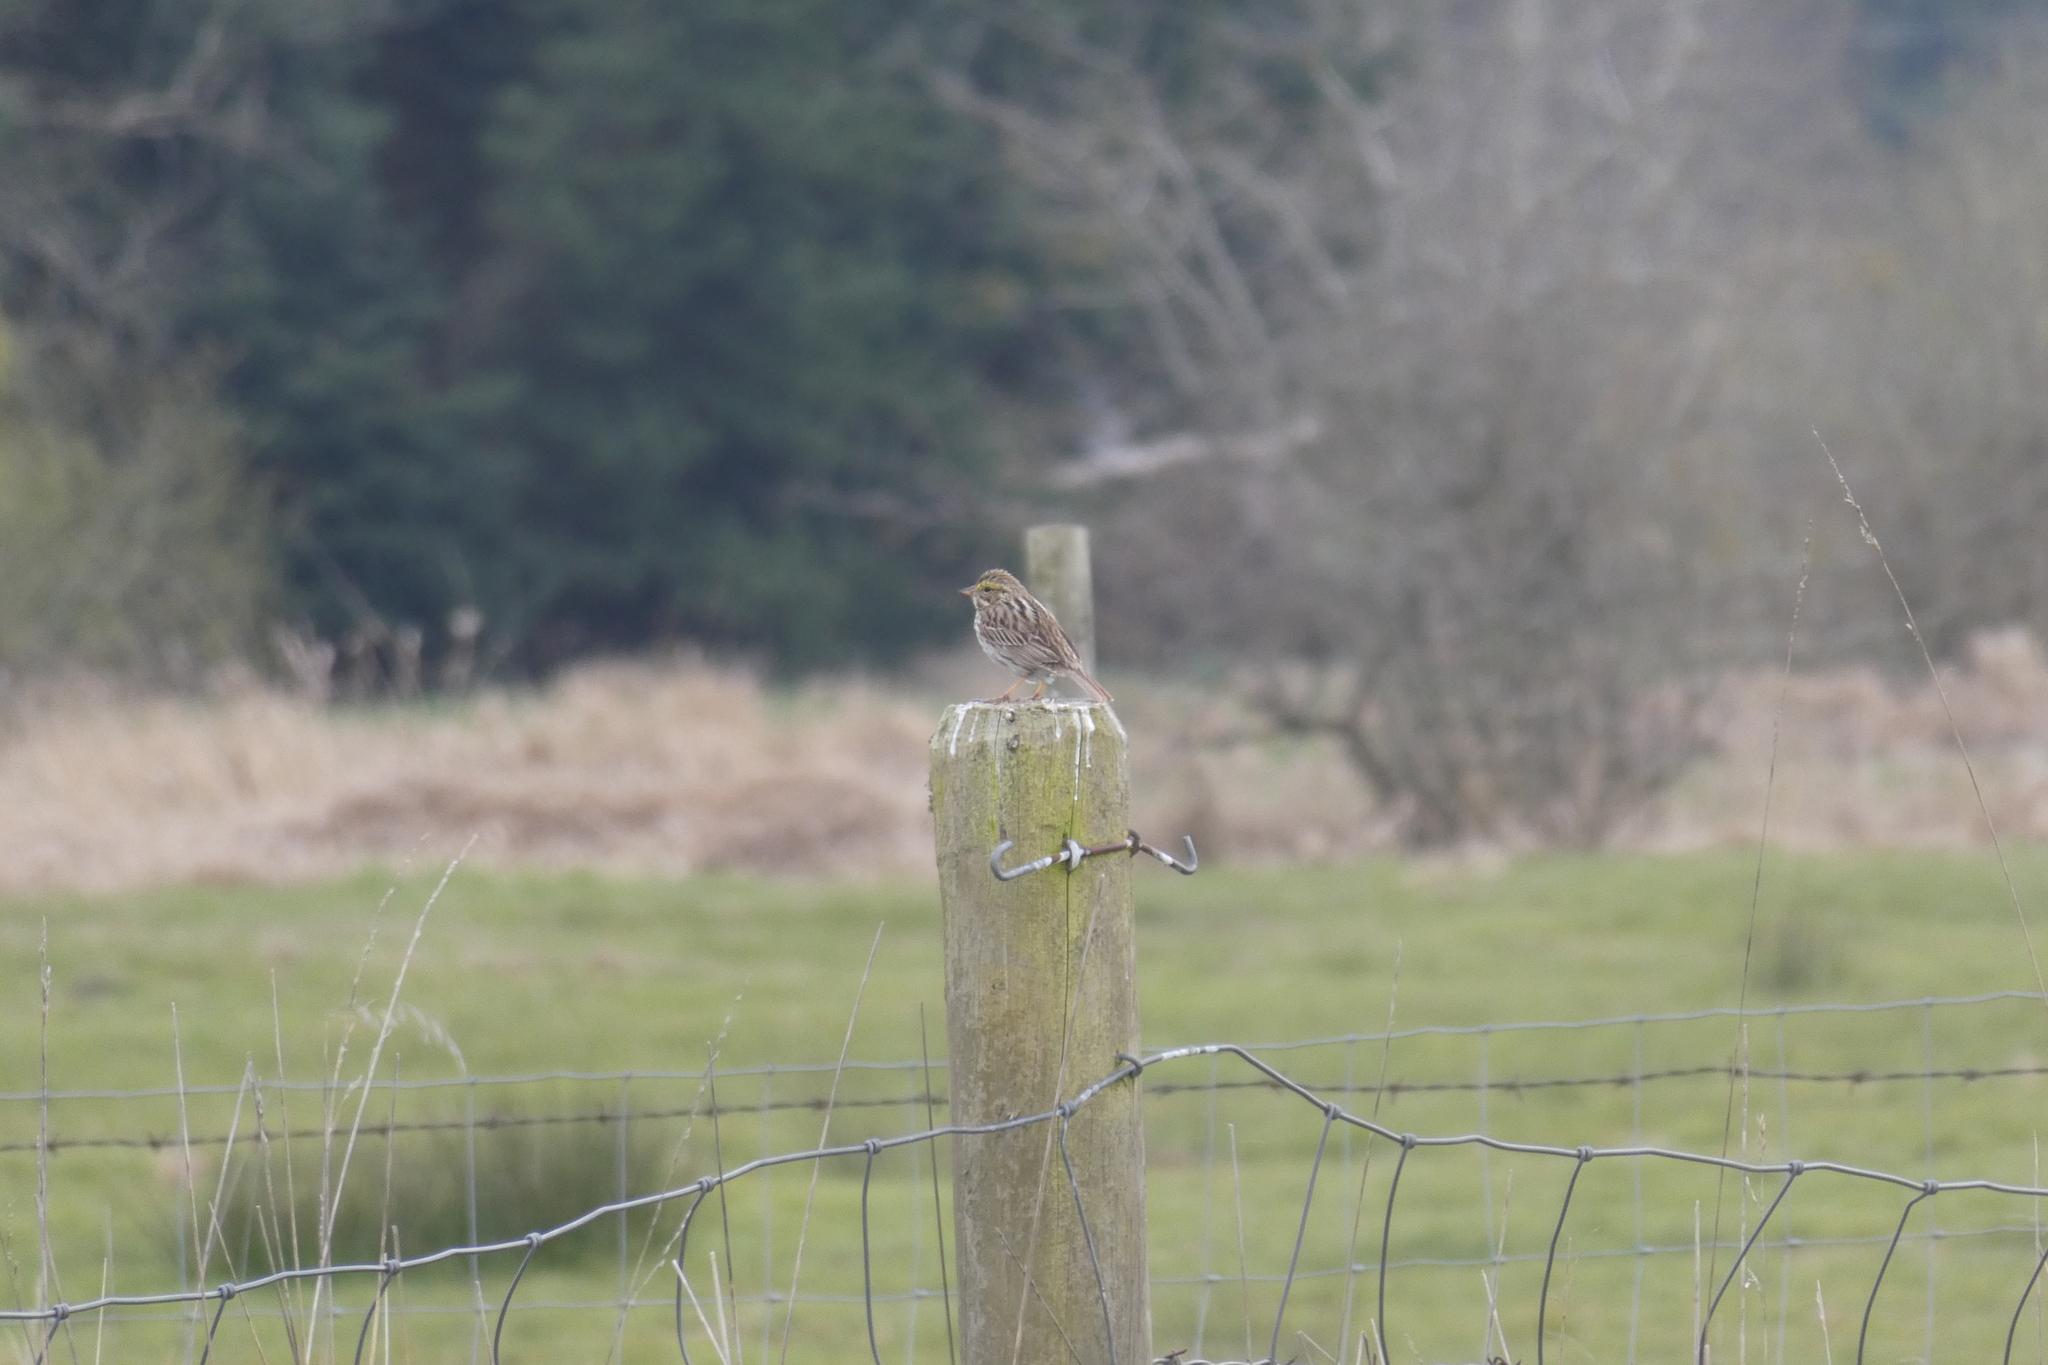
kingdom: Animalia
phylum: Chordata
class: Aves
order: Passeriformes
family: Passerellidae
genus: Passerculus
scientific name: Passerculus sandwichensis
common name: Savannah sparrow
